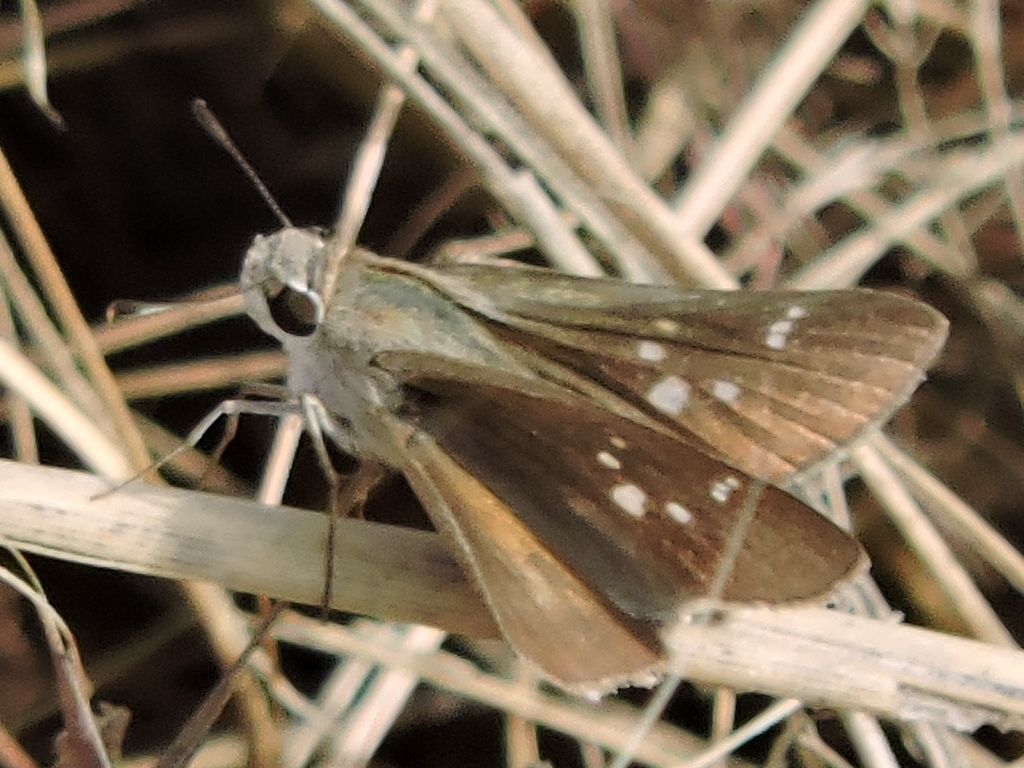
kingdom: Animalia
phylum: Arthropoda
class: Insecta
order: Lepidoptera
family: Hesperiidae
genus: Lerema
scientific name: Lerema accius
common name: Clouded skipper
